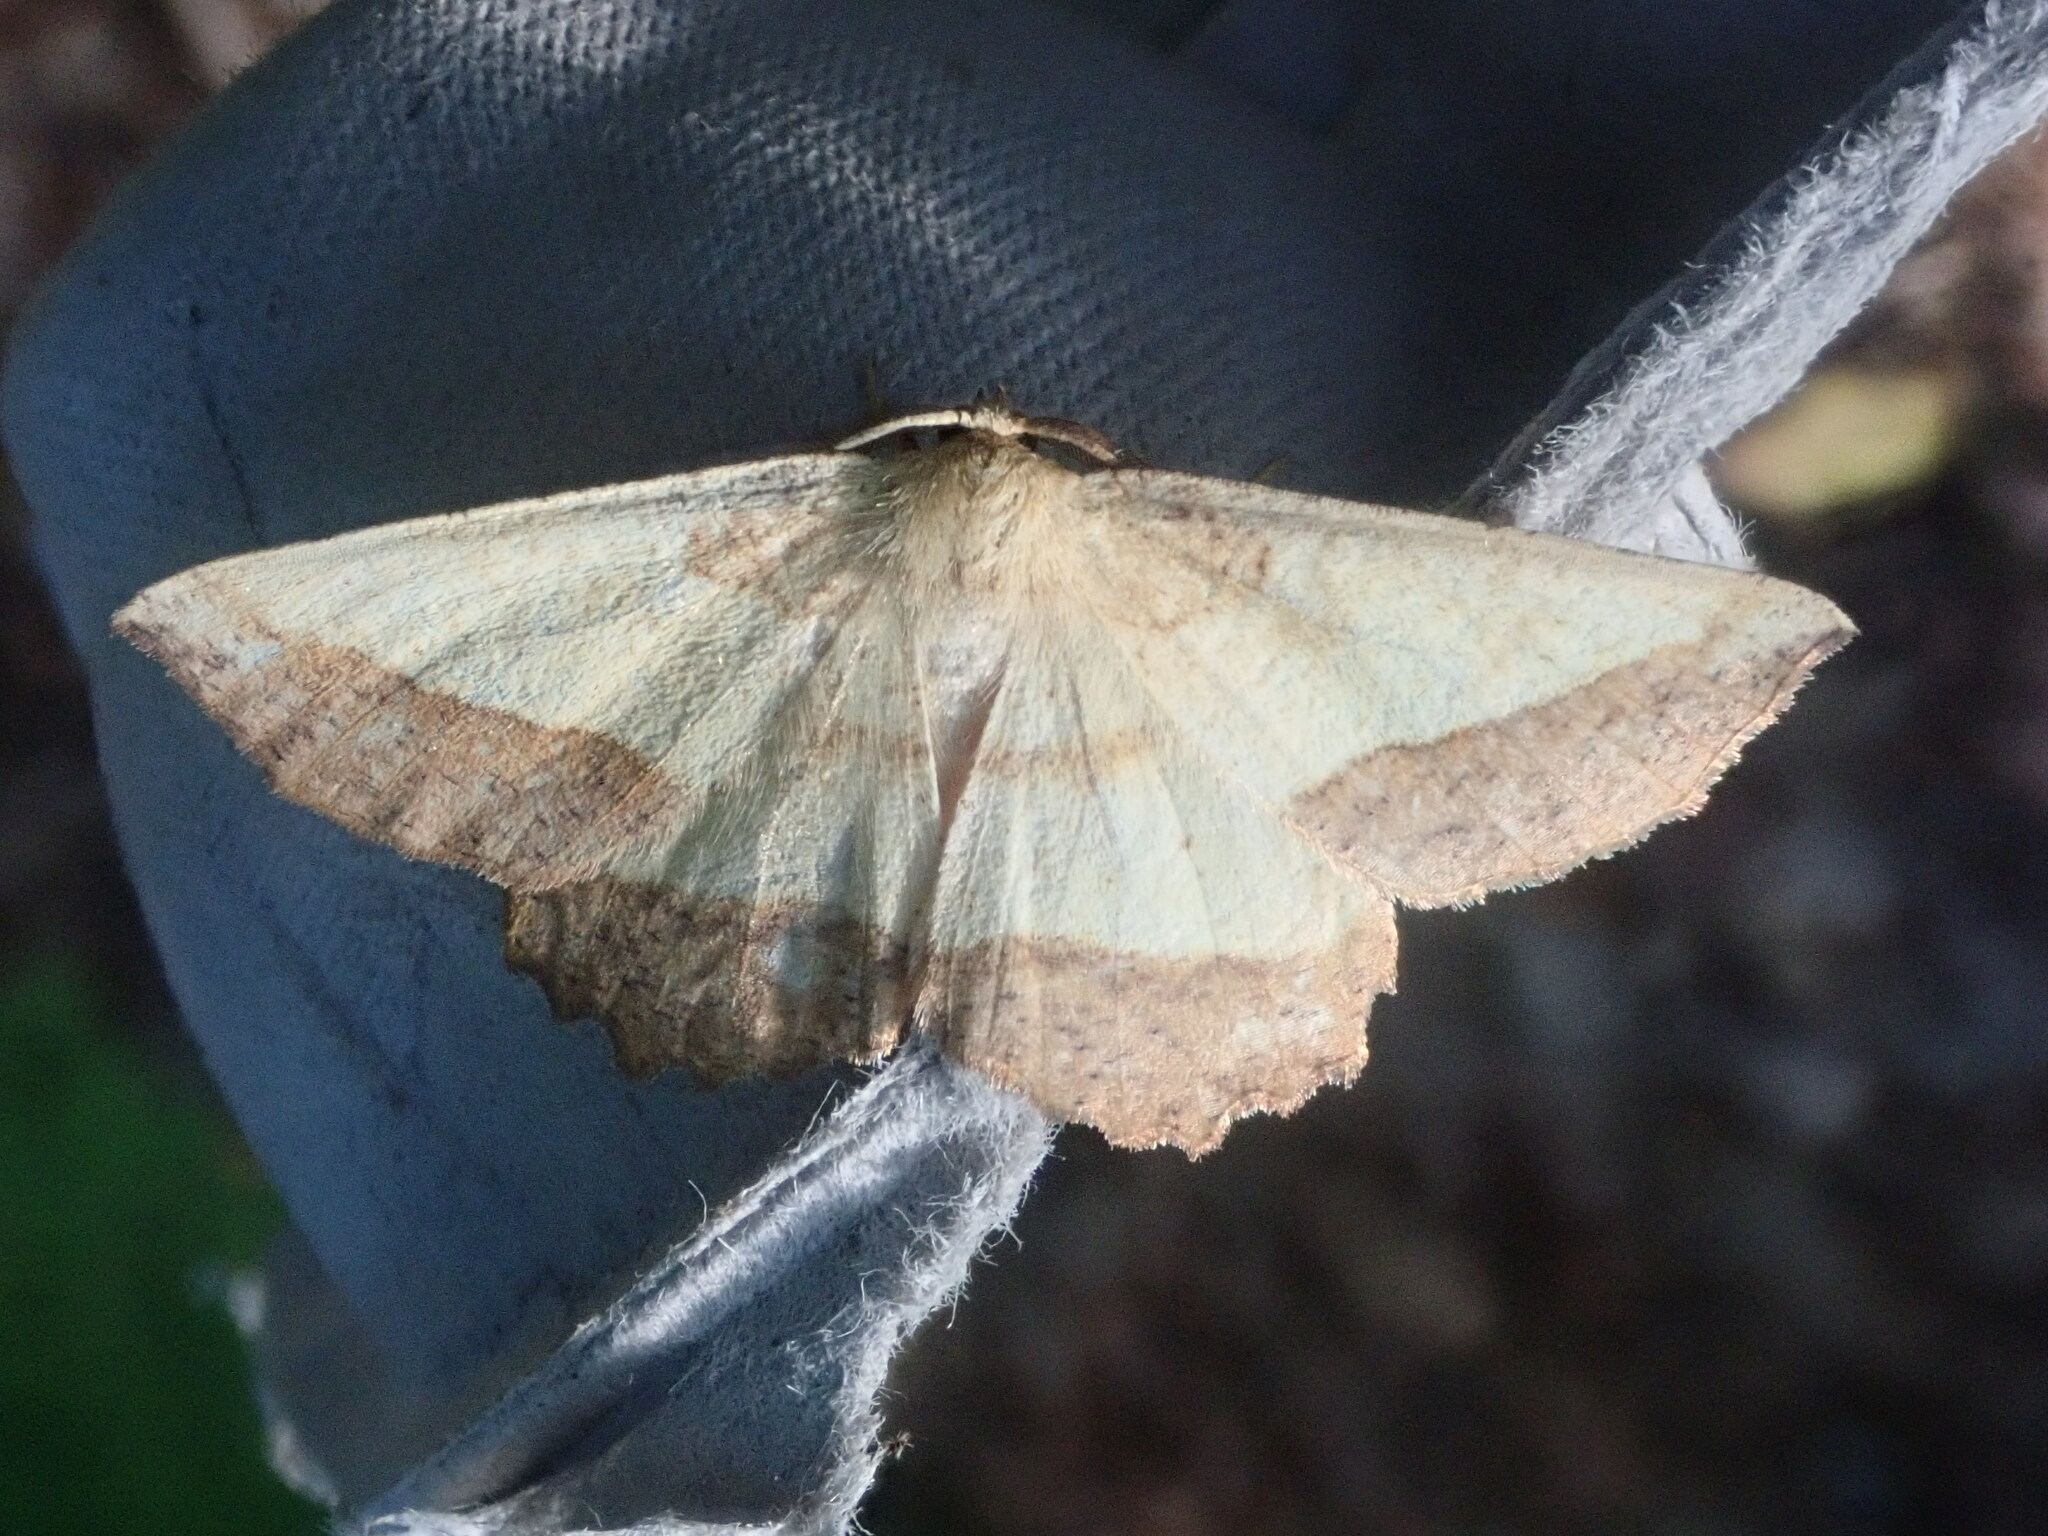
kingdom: Animalia
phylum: Arthropoda
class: Insecta
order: Lepidoptera
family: Geometridae
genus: Euchlaena
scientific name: Euchlaena serrata
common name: Saw wing
